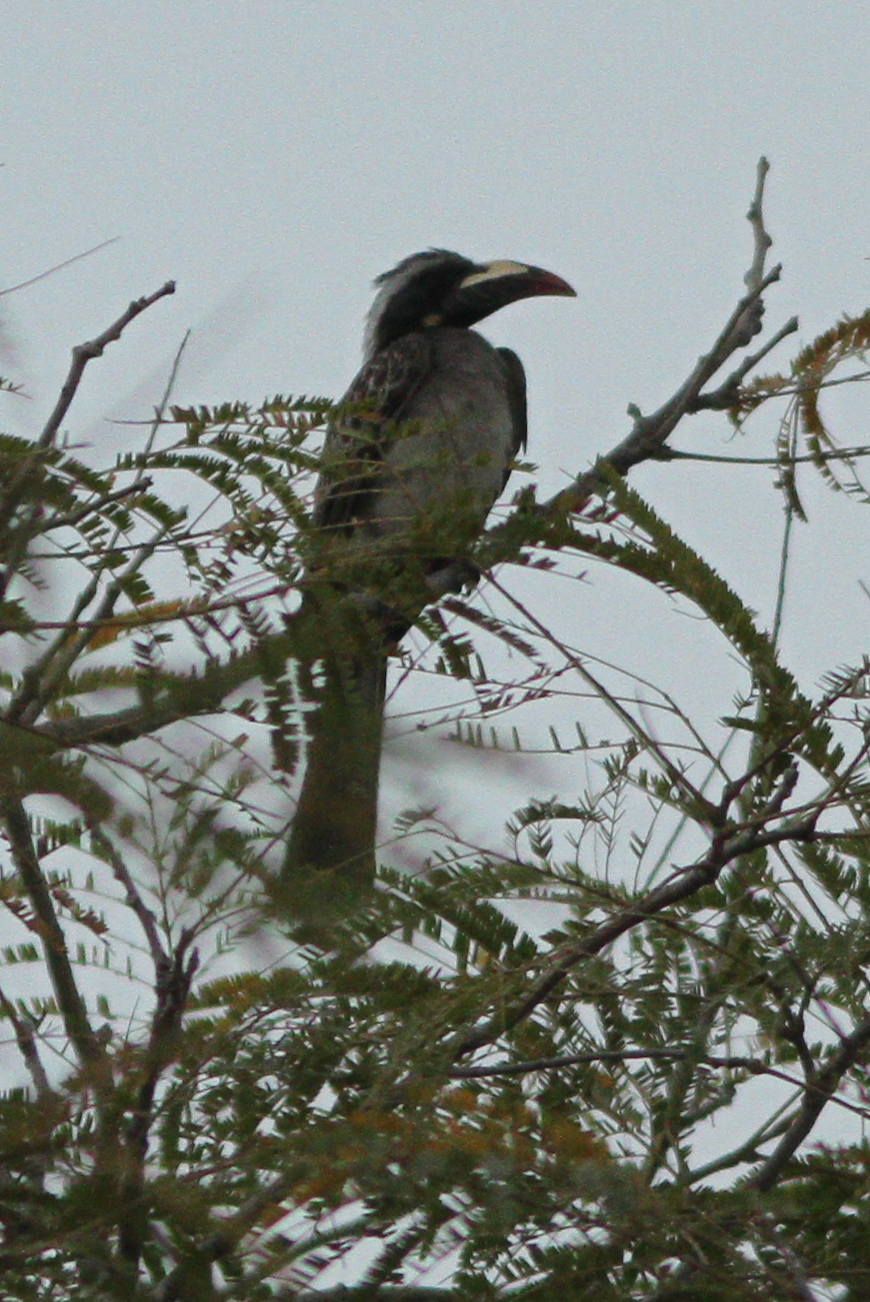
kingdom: Animalia
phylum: Chordata
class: Aves
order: Bucerotiformes
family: Bucerotidae
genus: Lophoceros
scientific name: Lophoceros nasutus
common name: African grey hornbill
